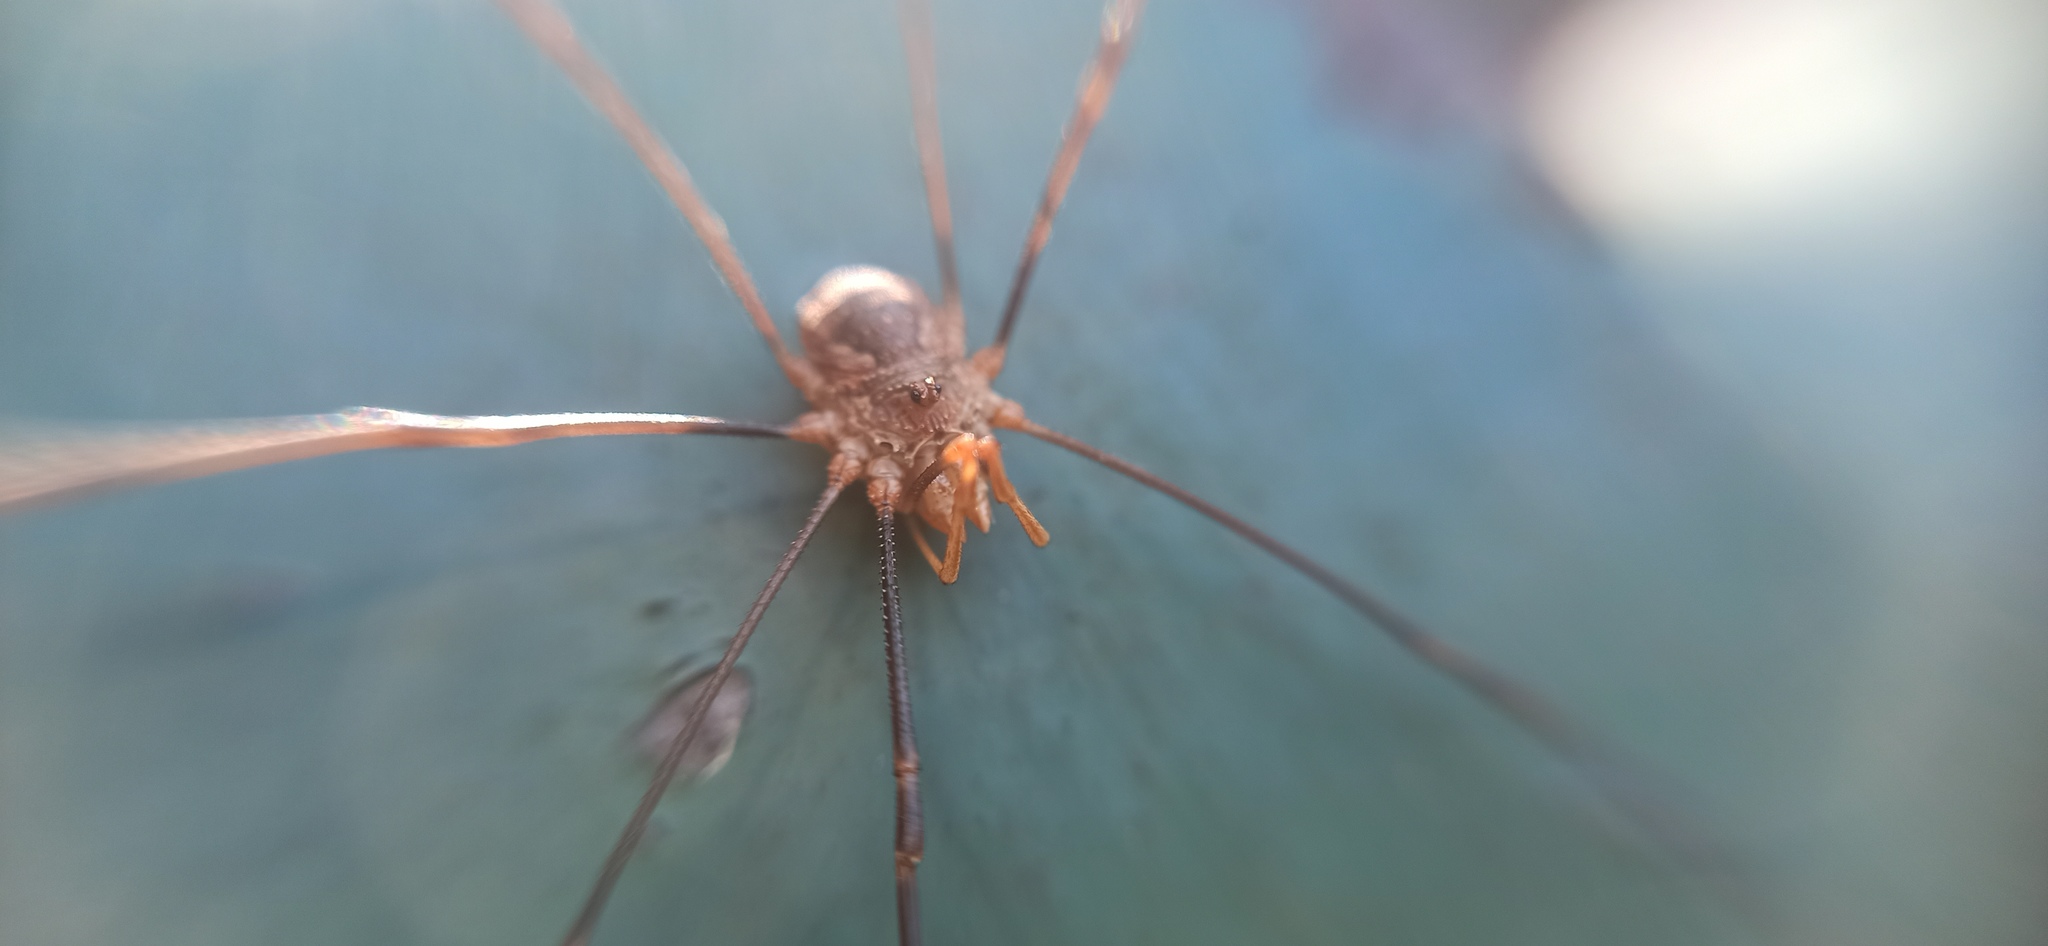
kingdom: Animalia
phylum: Arthropoda
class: Arachnida
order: Opiliones
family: Phalangiidae
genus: Phalangium
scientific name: Phalangium opilio
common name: Daddy longleg
